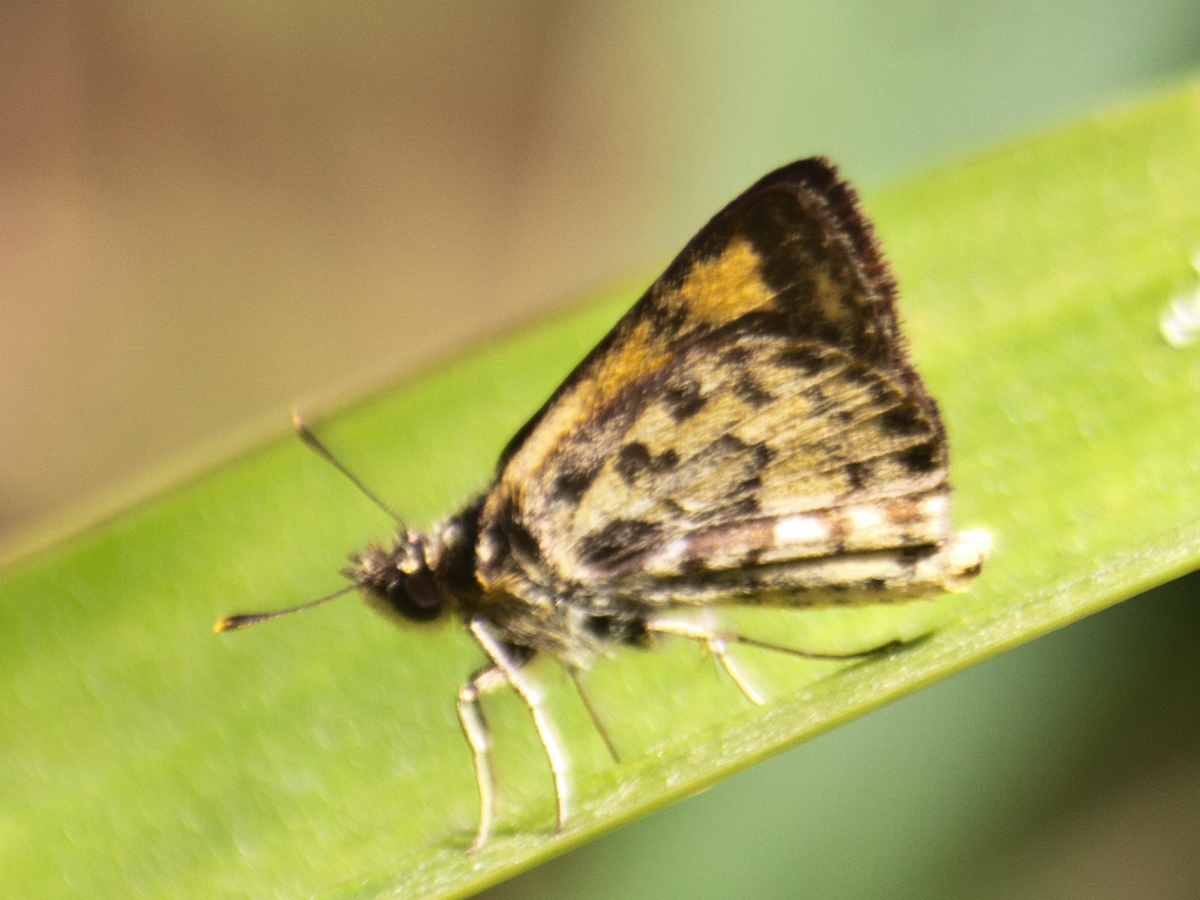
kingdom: Animalia
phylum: Arthropoda
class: Insecta
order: Lepidoptera
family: Hesperiidae
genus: Ampittia
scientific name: Ampittia dioscorides
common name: Common bush hopper
